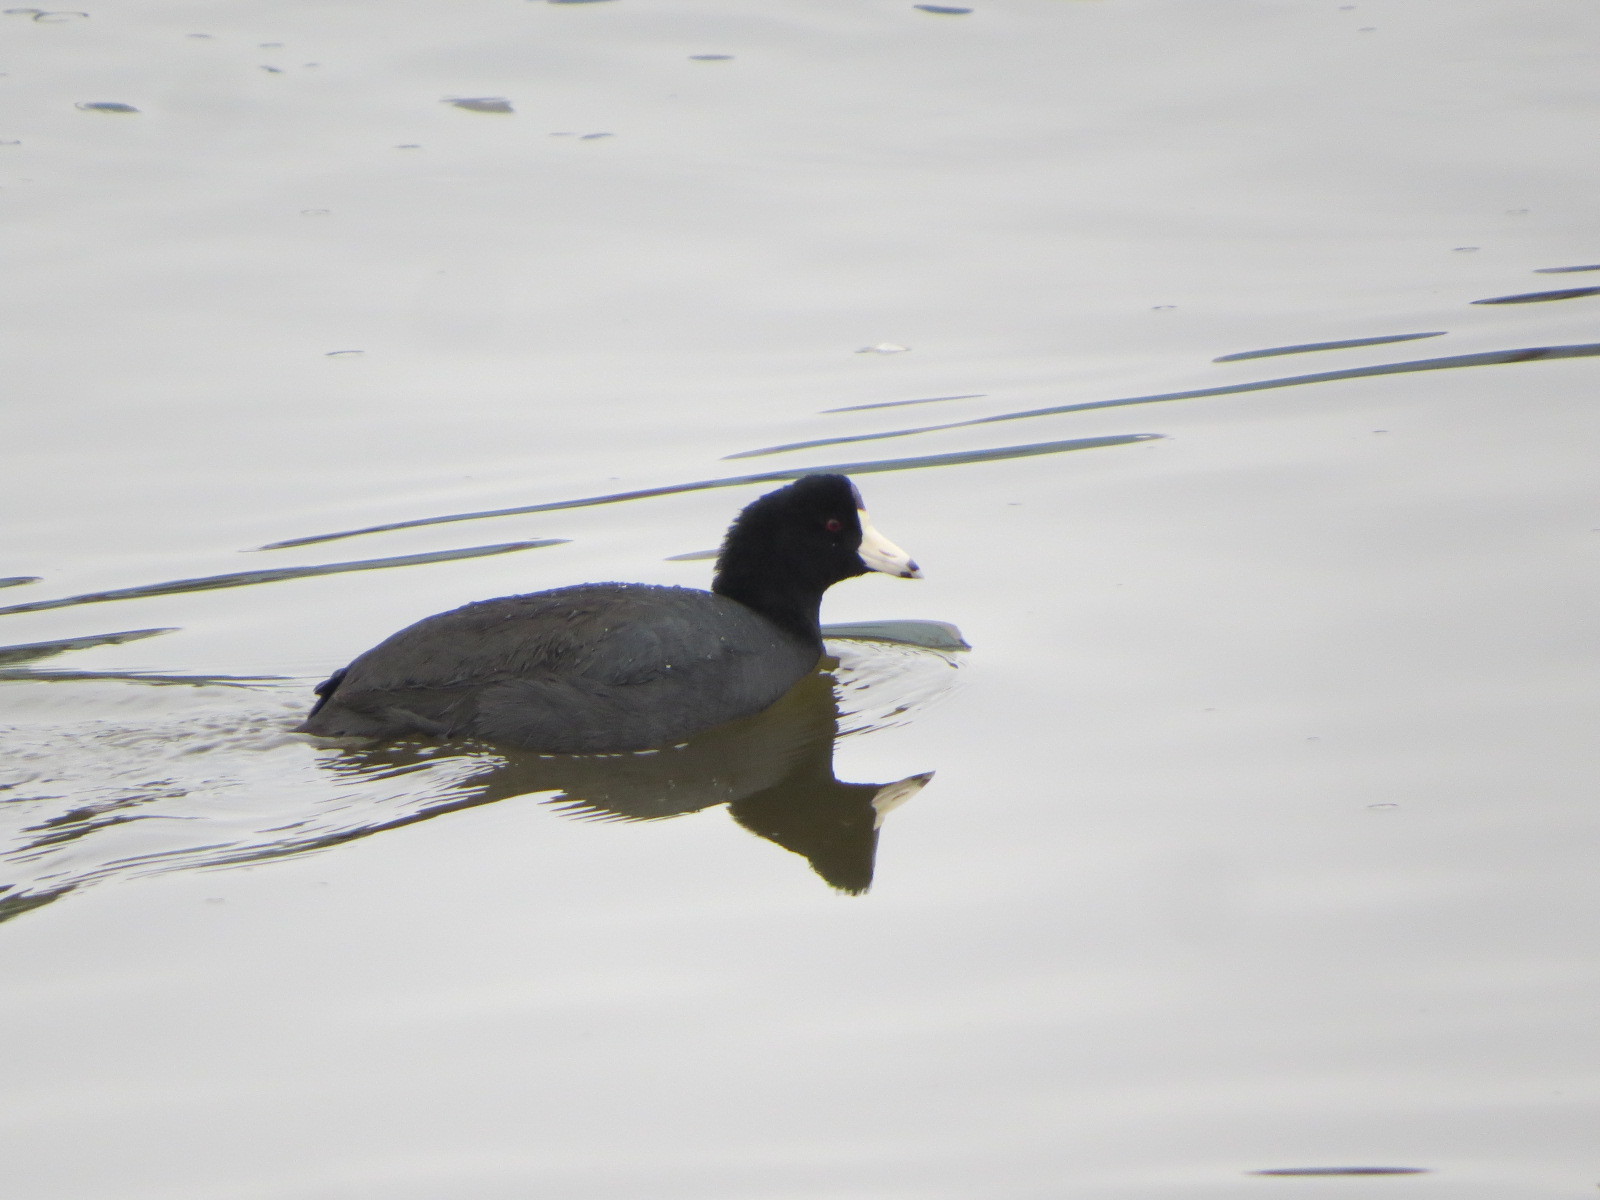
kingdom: Animalia
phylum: Chordata
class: Aves
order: Gruiformes
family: Rallidae
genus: Fulica
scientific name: Fulica americana
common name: American coot
